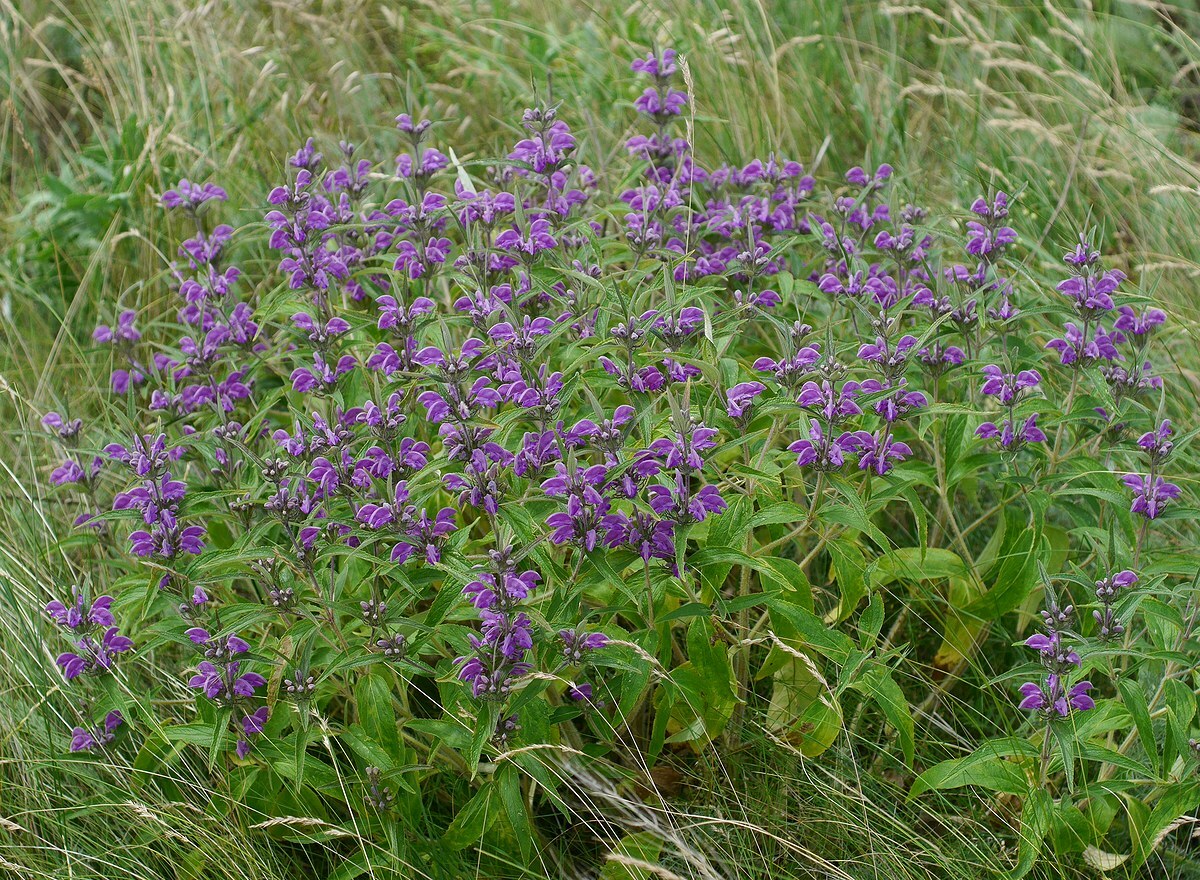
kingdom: Plantae
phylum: Tracheophyta
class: Magnoliopsida
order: Lamiales
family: Lamiaceae
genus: Phlomis
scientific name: Phlomis herba-venti
